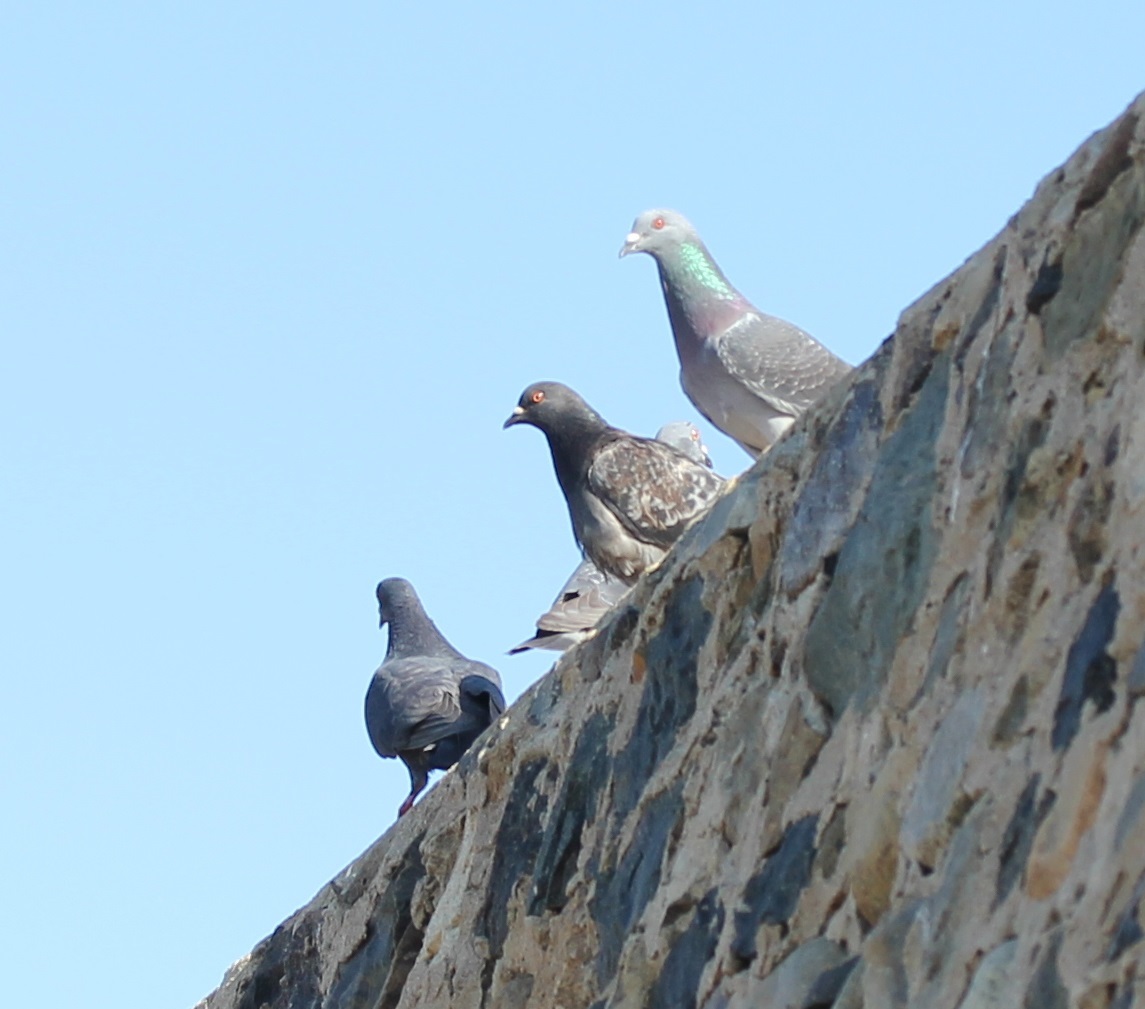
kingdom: Animalia
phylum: Chordata
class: Aves
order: Columbiformes
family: Columbidae
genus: Columba
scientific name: Columba livia
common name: Rock pigeon
